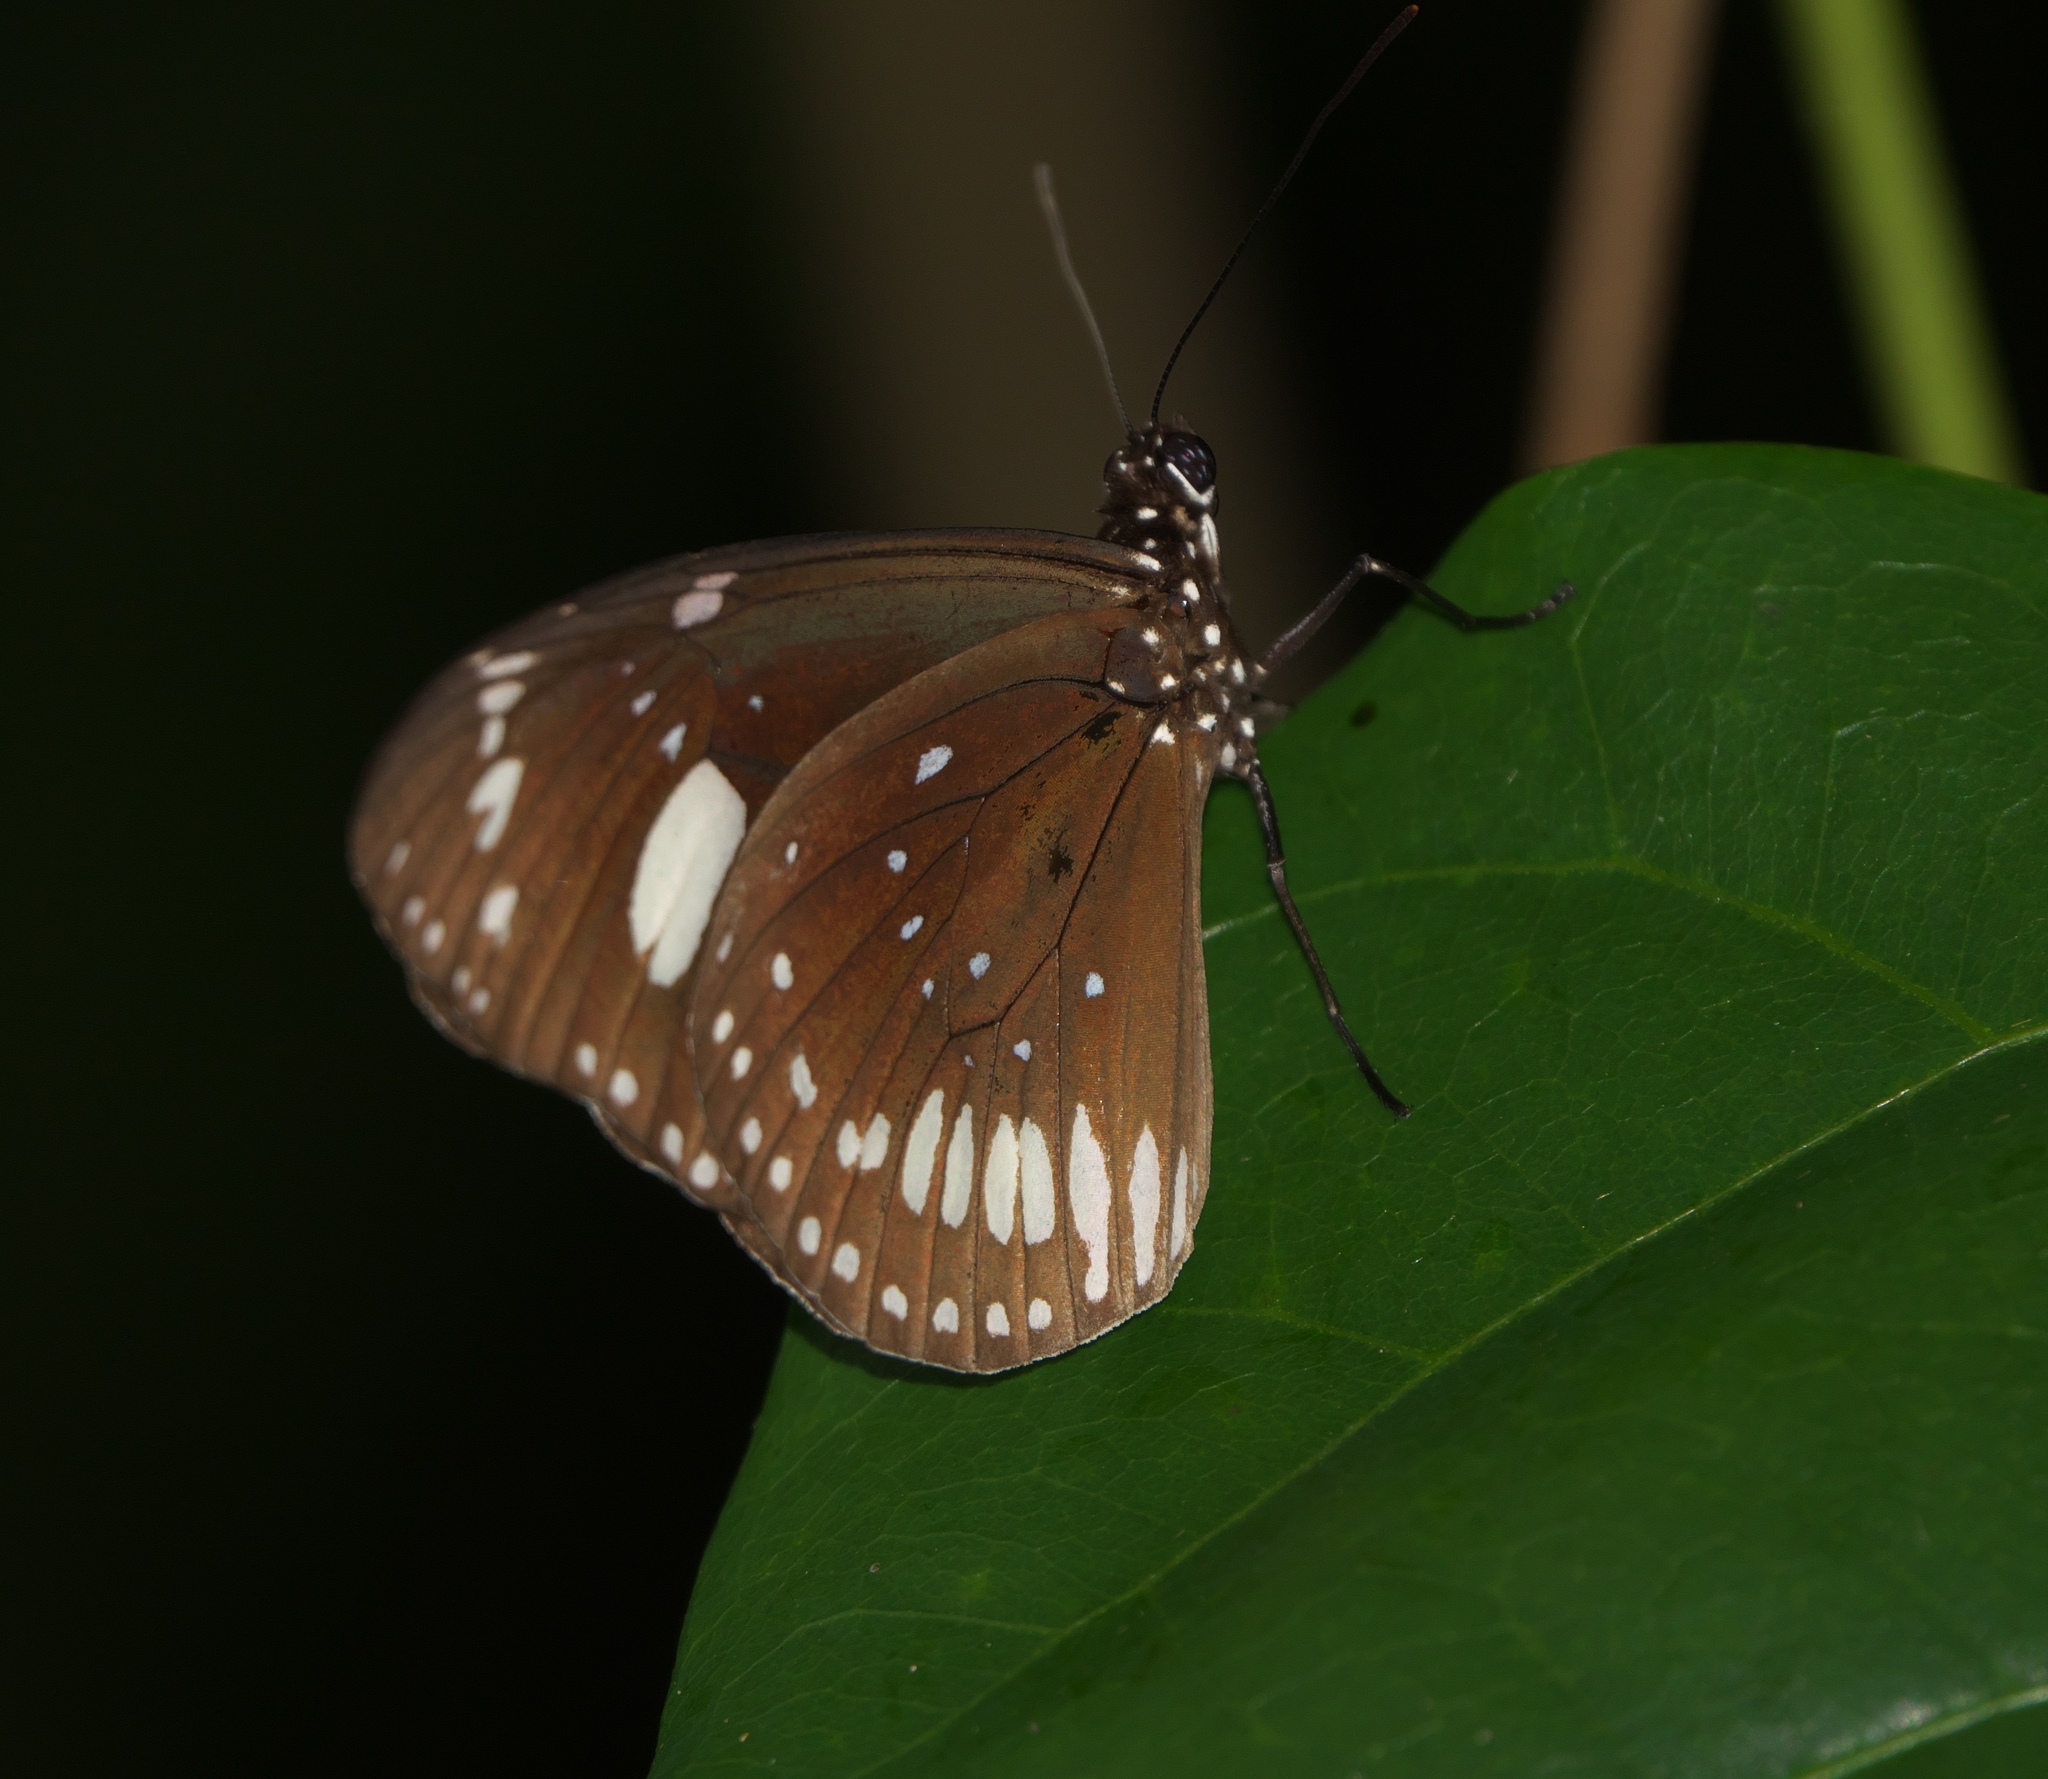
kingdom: Animalia
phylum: Arthropoda
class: Insecta
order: Lepidoptera
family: Nymphalidae
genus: Euploea
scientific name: Euploea lewinii
